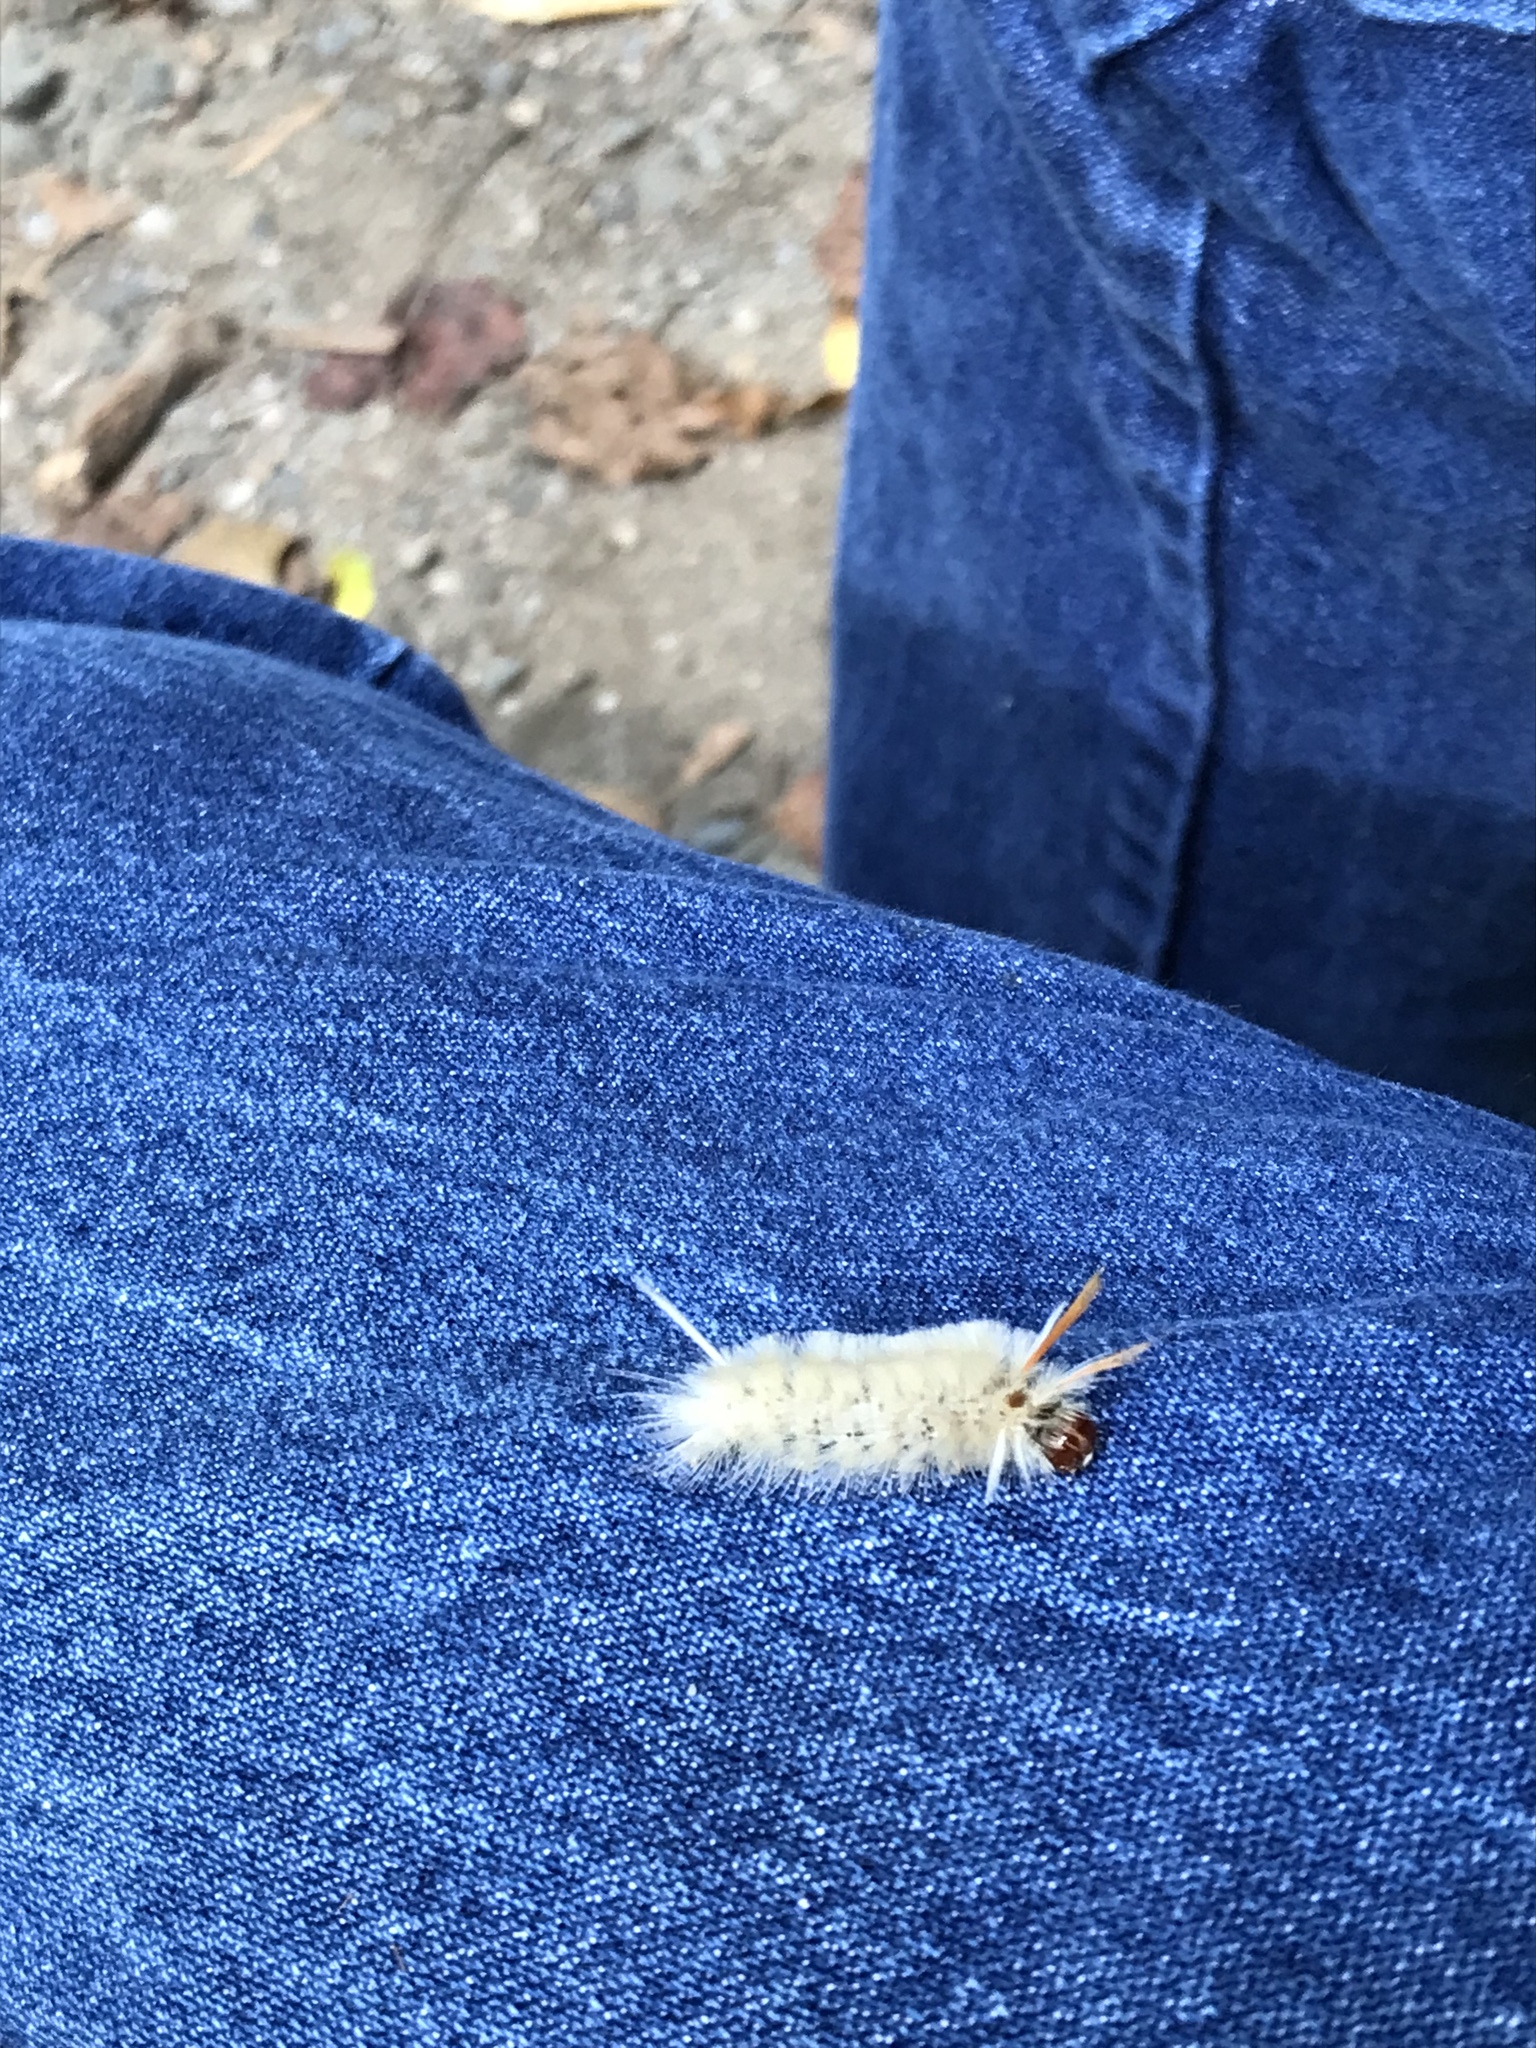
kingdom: Animalia
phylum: Arthropoda
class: Insecta
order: Lepidoptera
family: Erebidae
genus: Halysidota
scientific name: Halysidota harrisii
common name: Sycamore tussock moth
